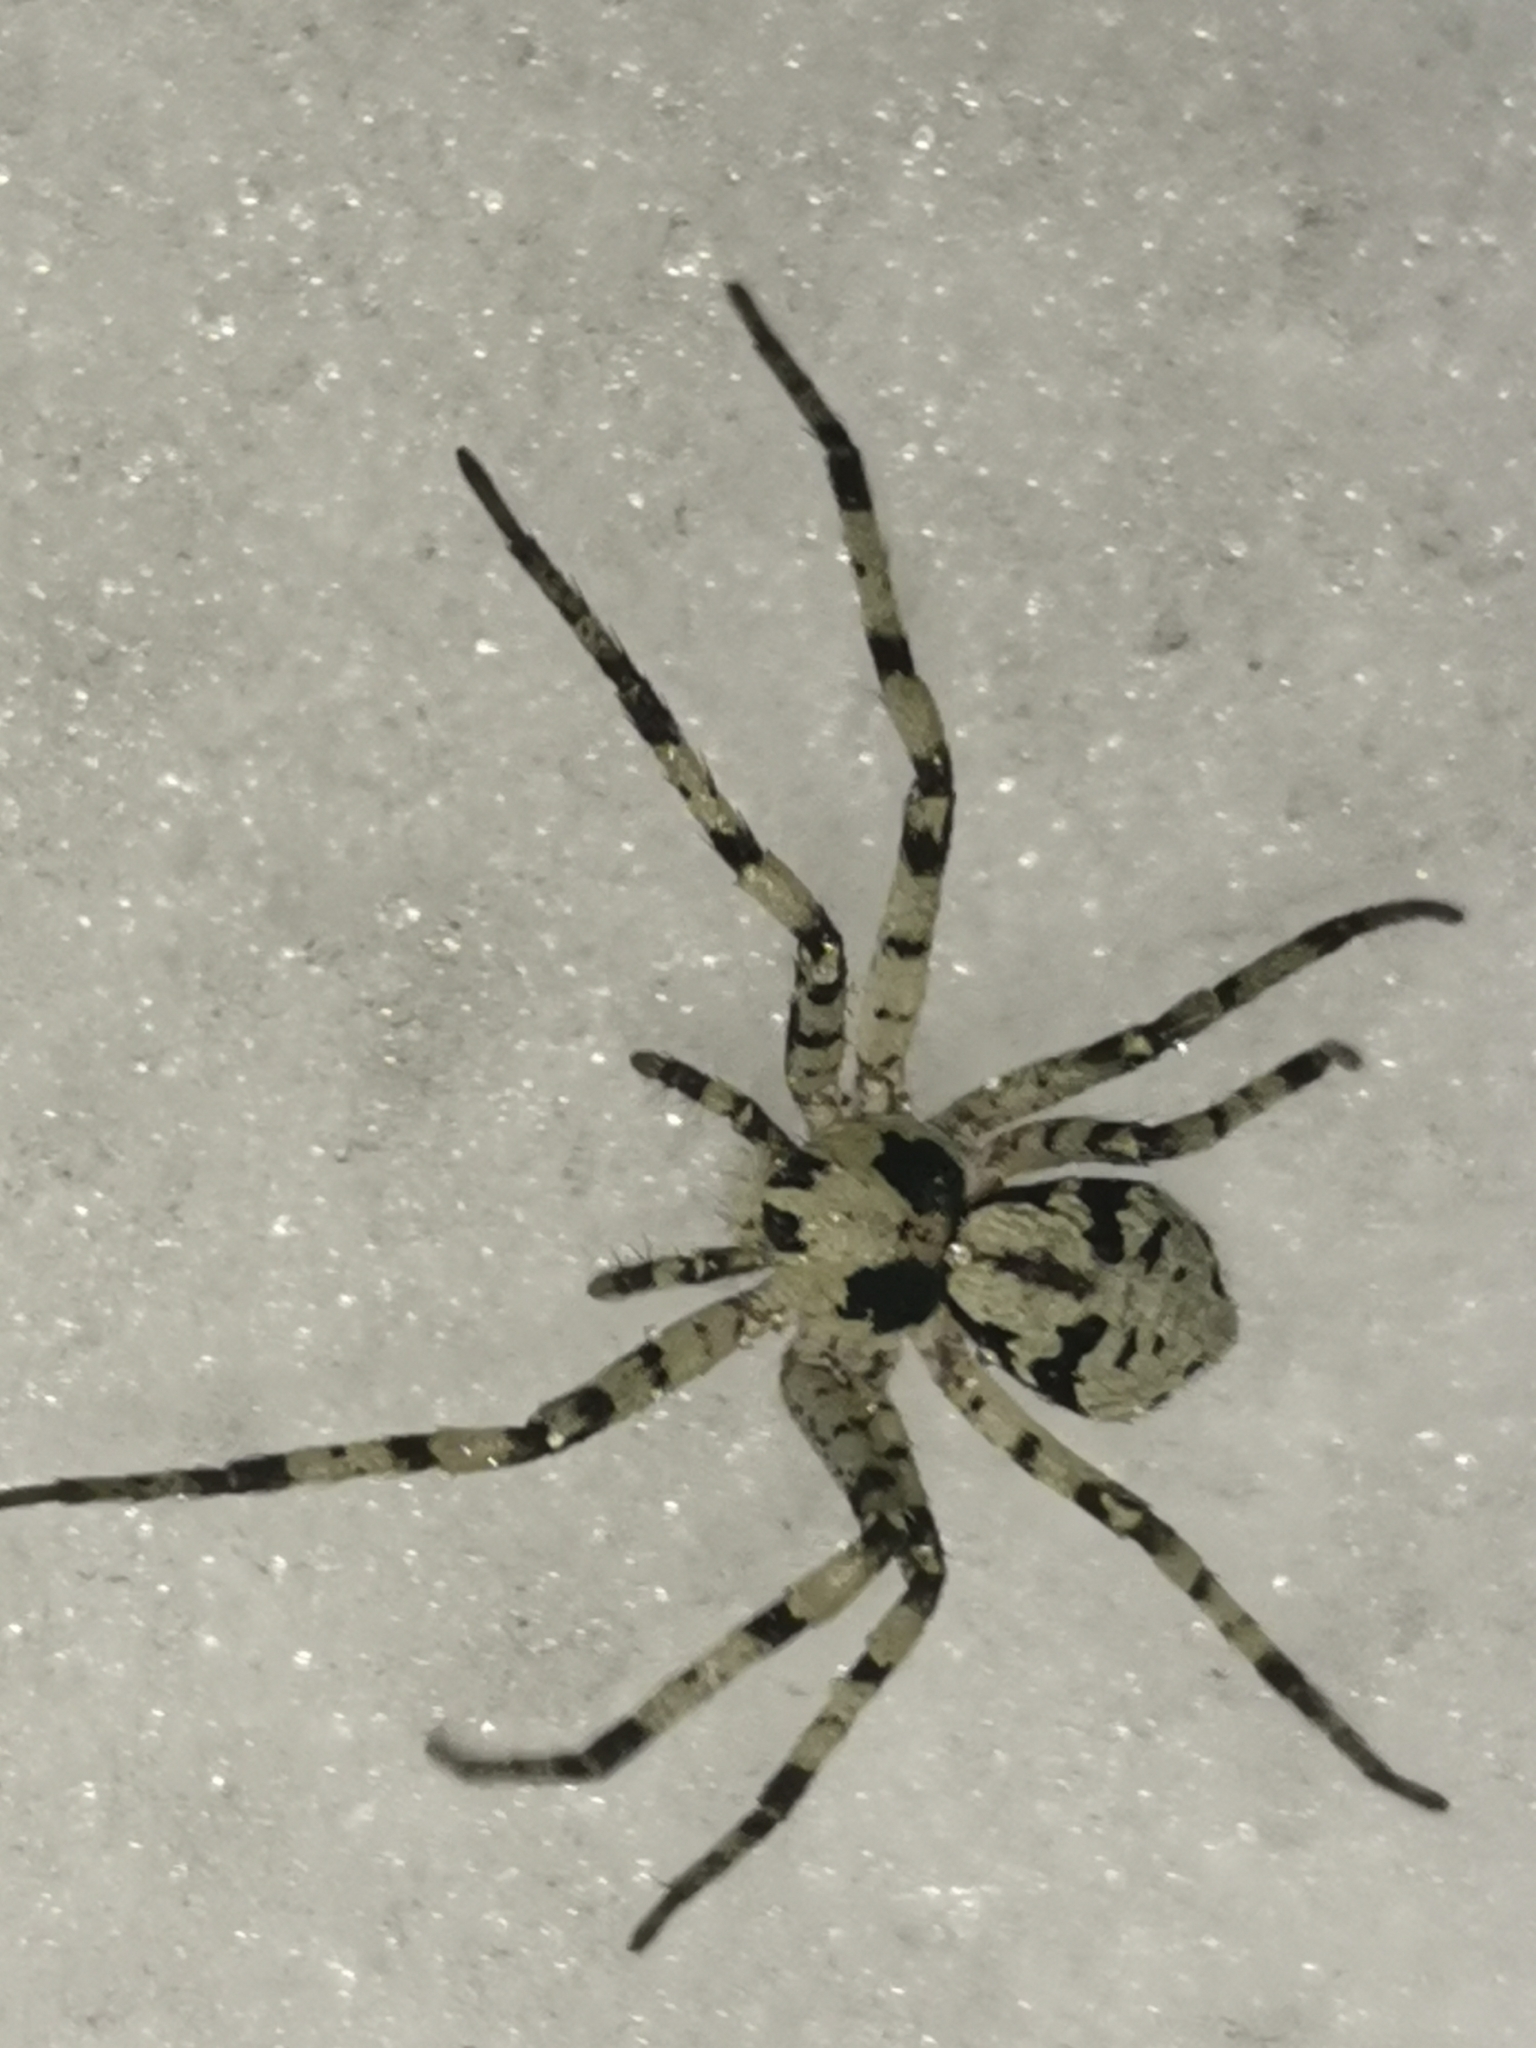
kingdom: Animalia
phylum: Arthropoda
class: Arachnida
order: Araneae
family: Philodromidae
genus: Philodromus
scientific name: Philodromus margaritatus
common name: Lichen running-spider
